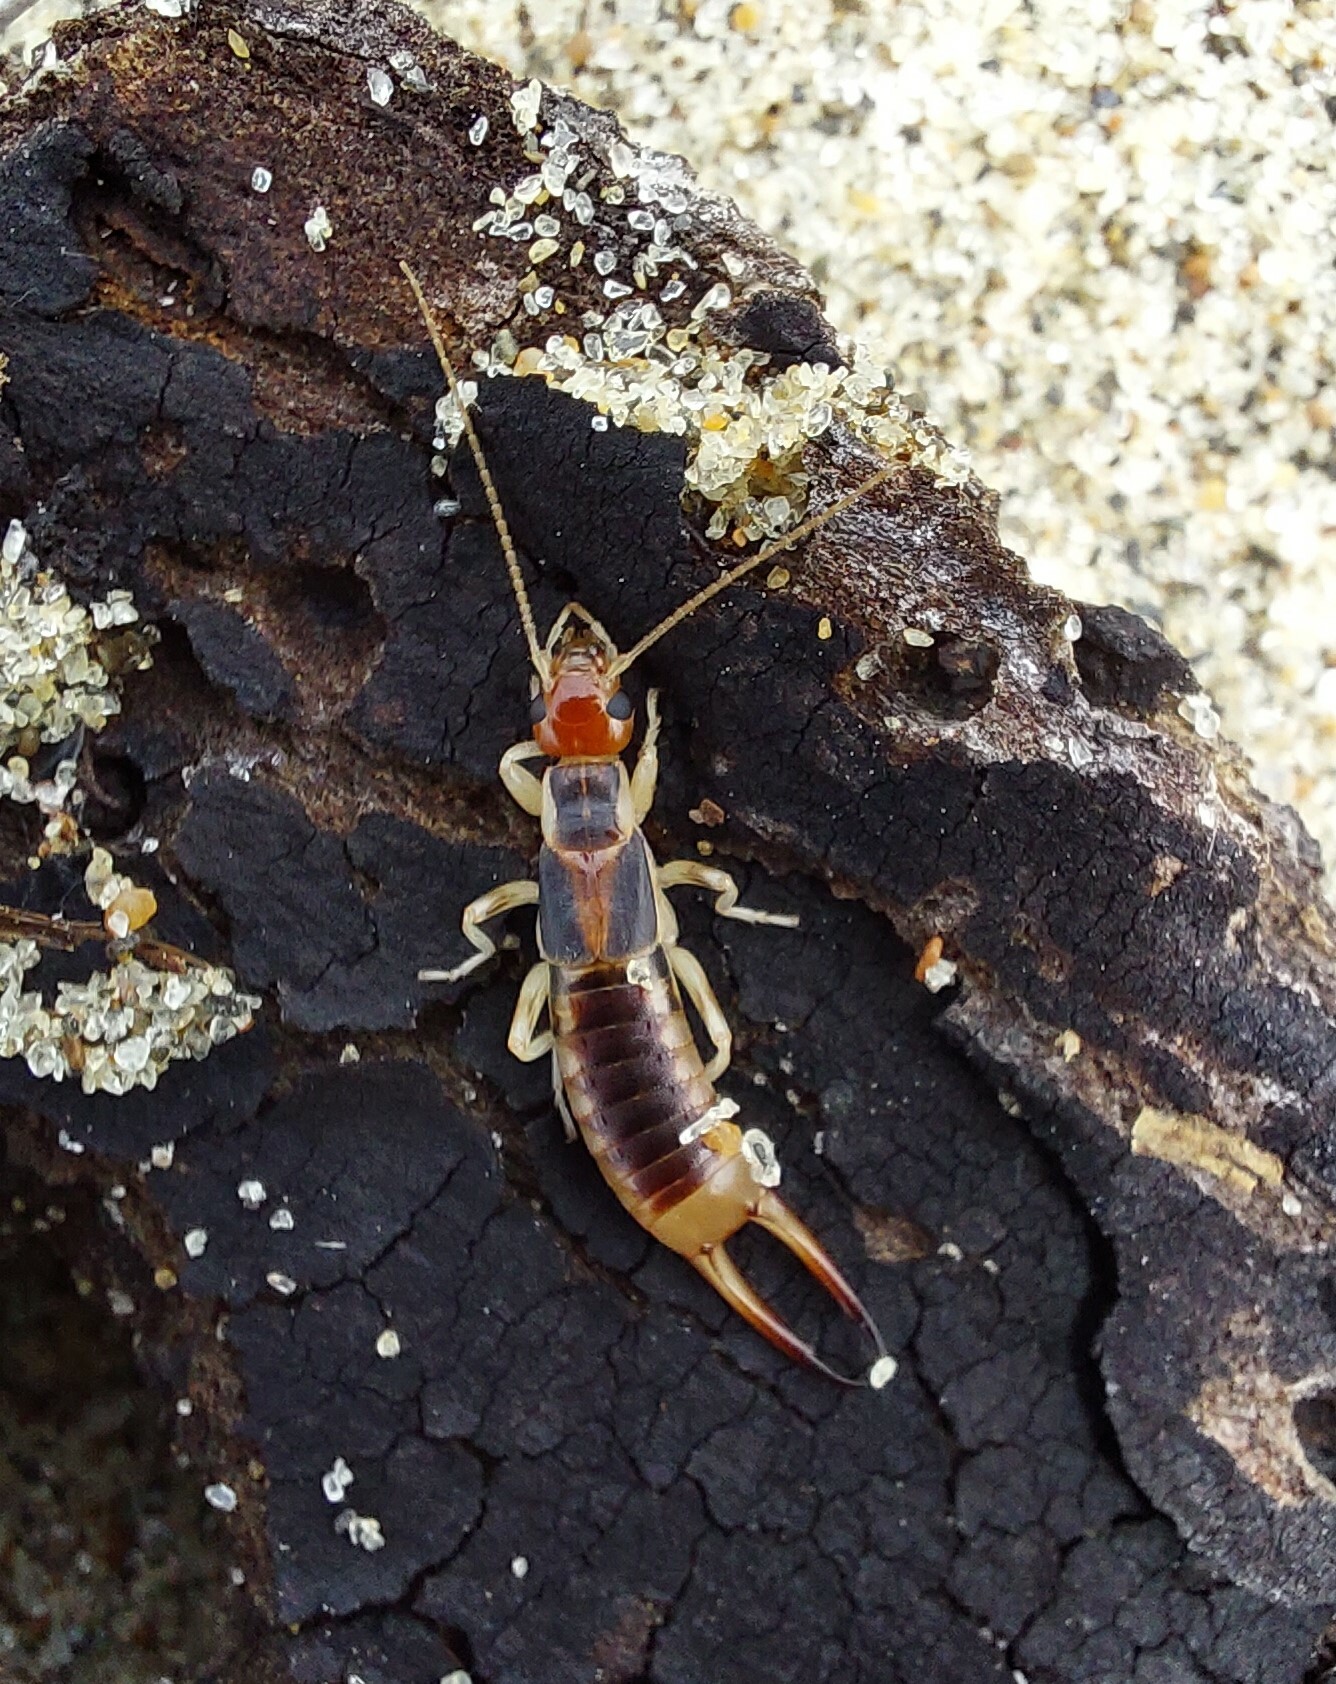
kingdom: Animalia
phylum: Arthropoda
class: Insecta
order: Dermaptera
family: Labiduridae
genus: Labidura
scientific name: Labidura riparia
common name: Striped earwig
